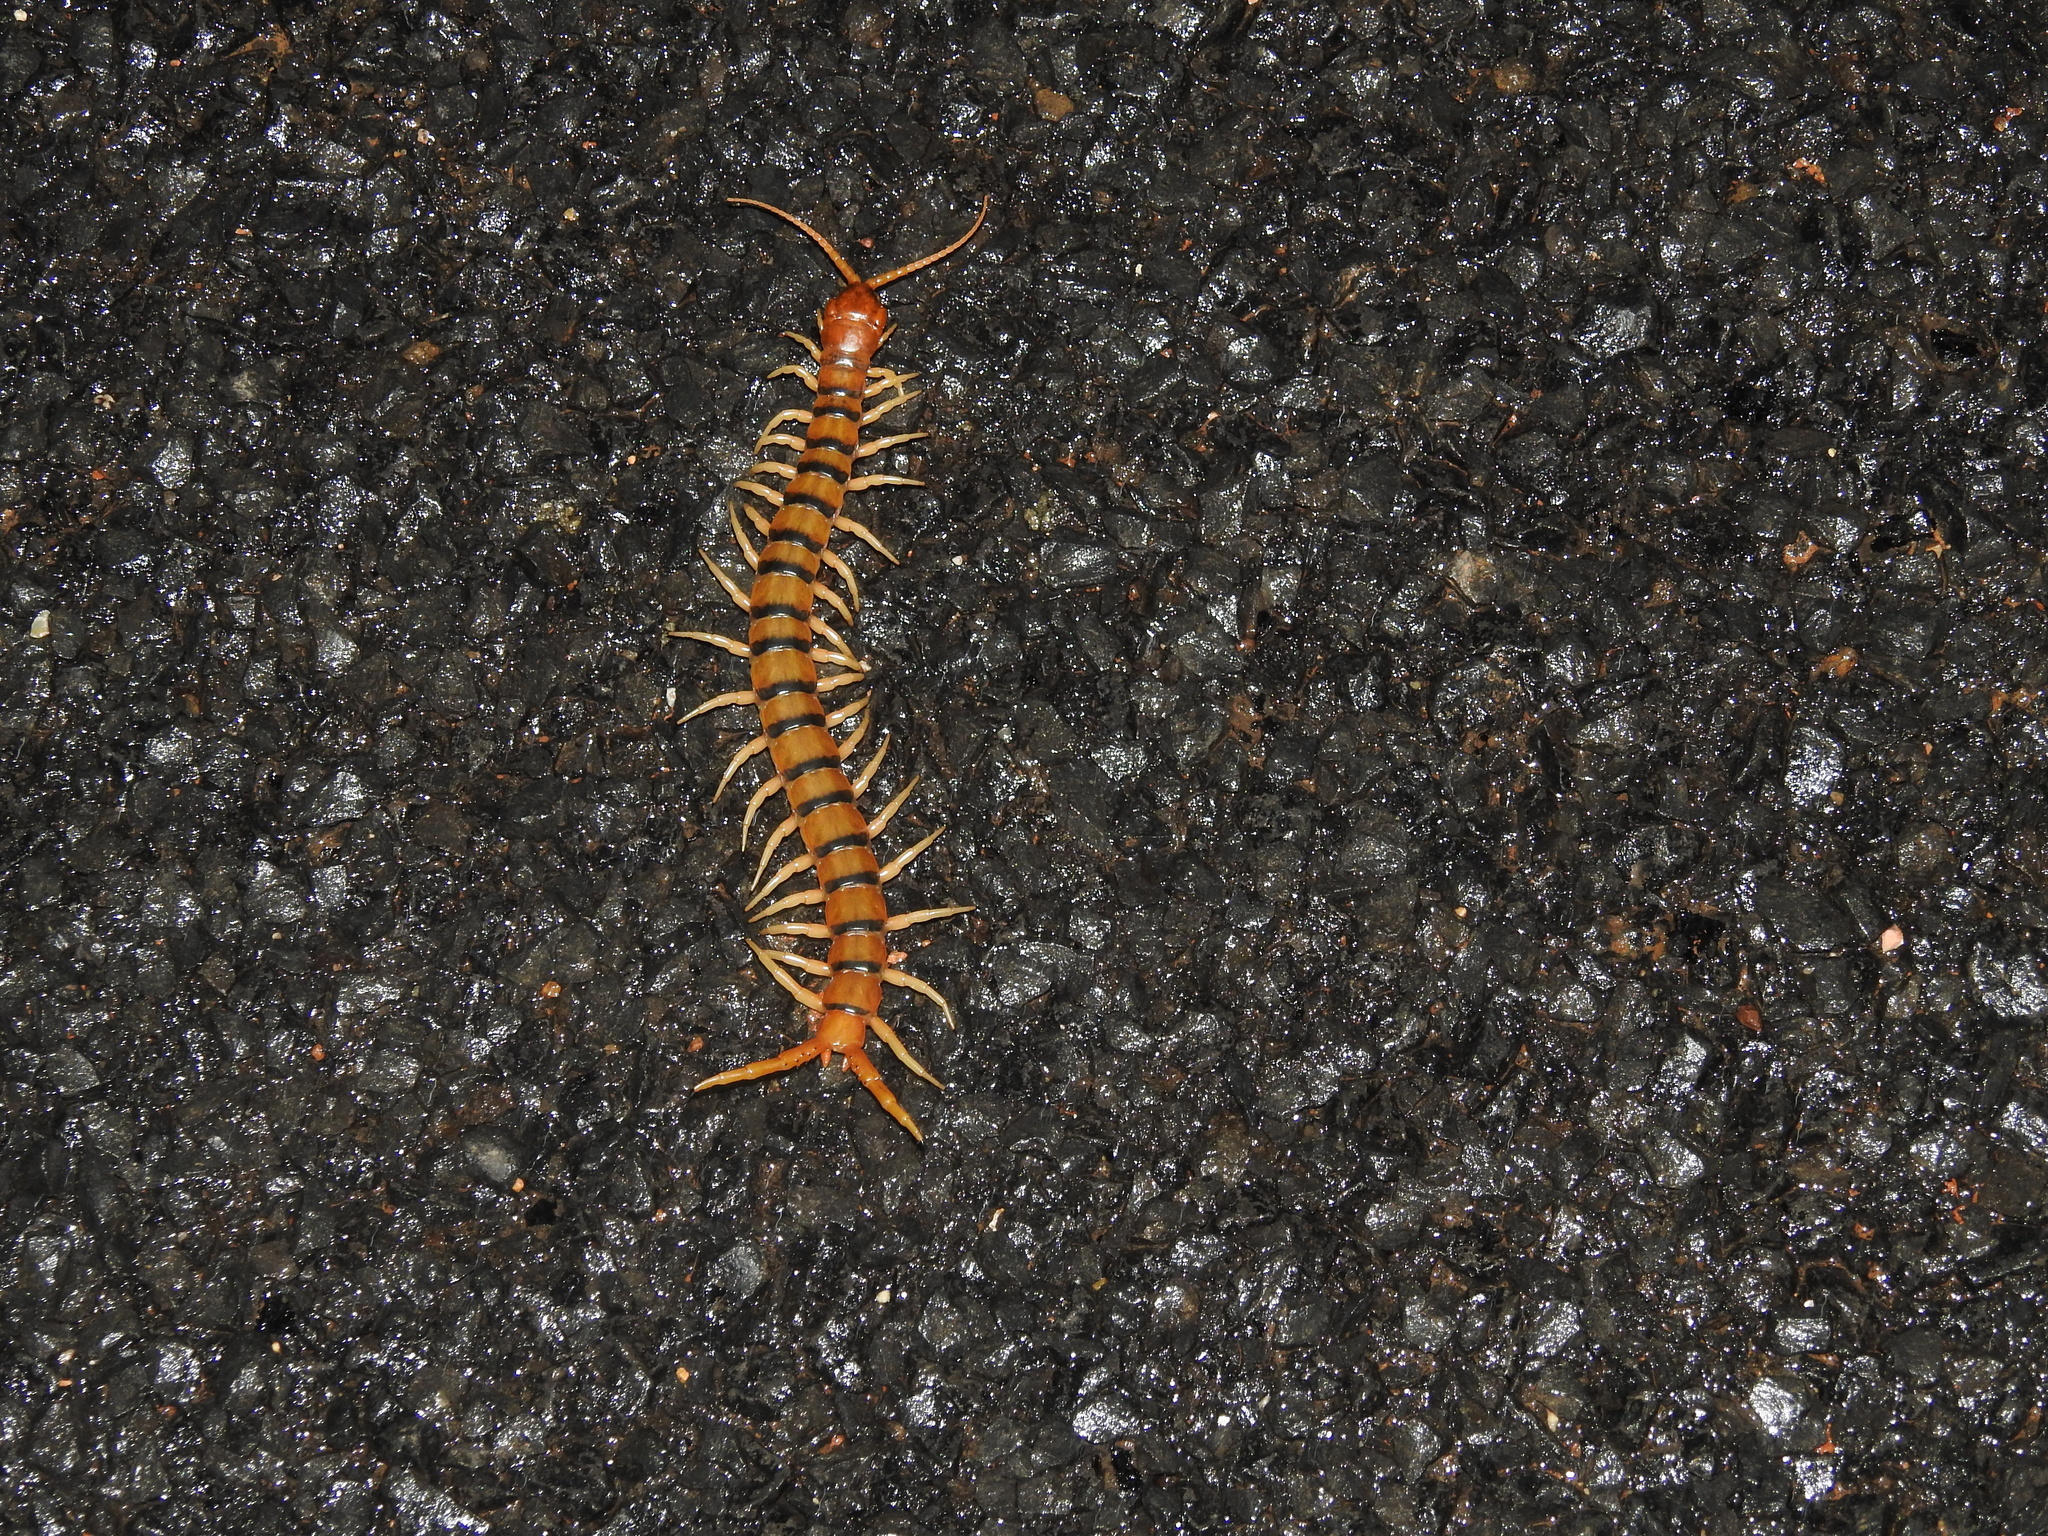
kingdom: Animalia
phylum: Arthropoda
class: Chilopoda
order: Scolopendromorpha
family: Scolopendridae
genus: Ethmostigmus
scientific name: Ethmostigmus rubripes
